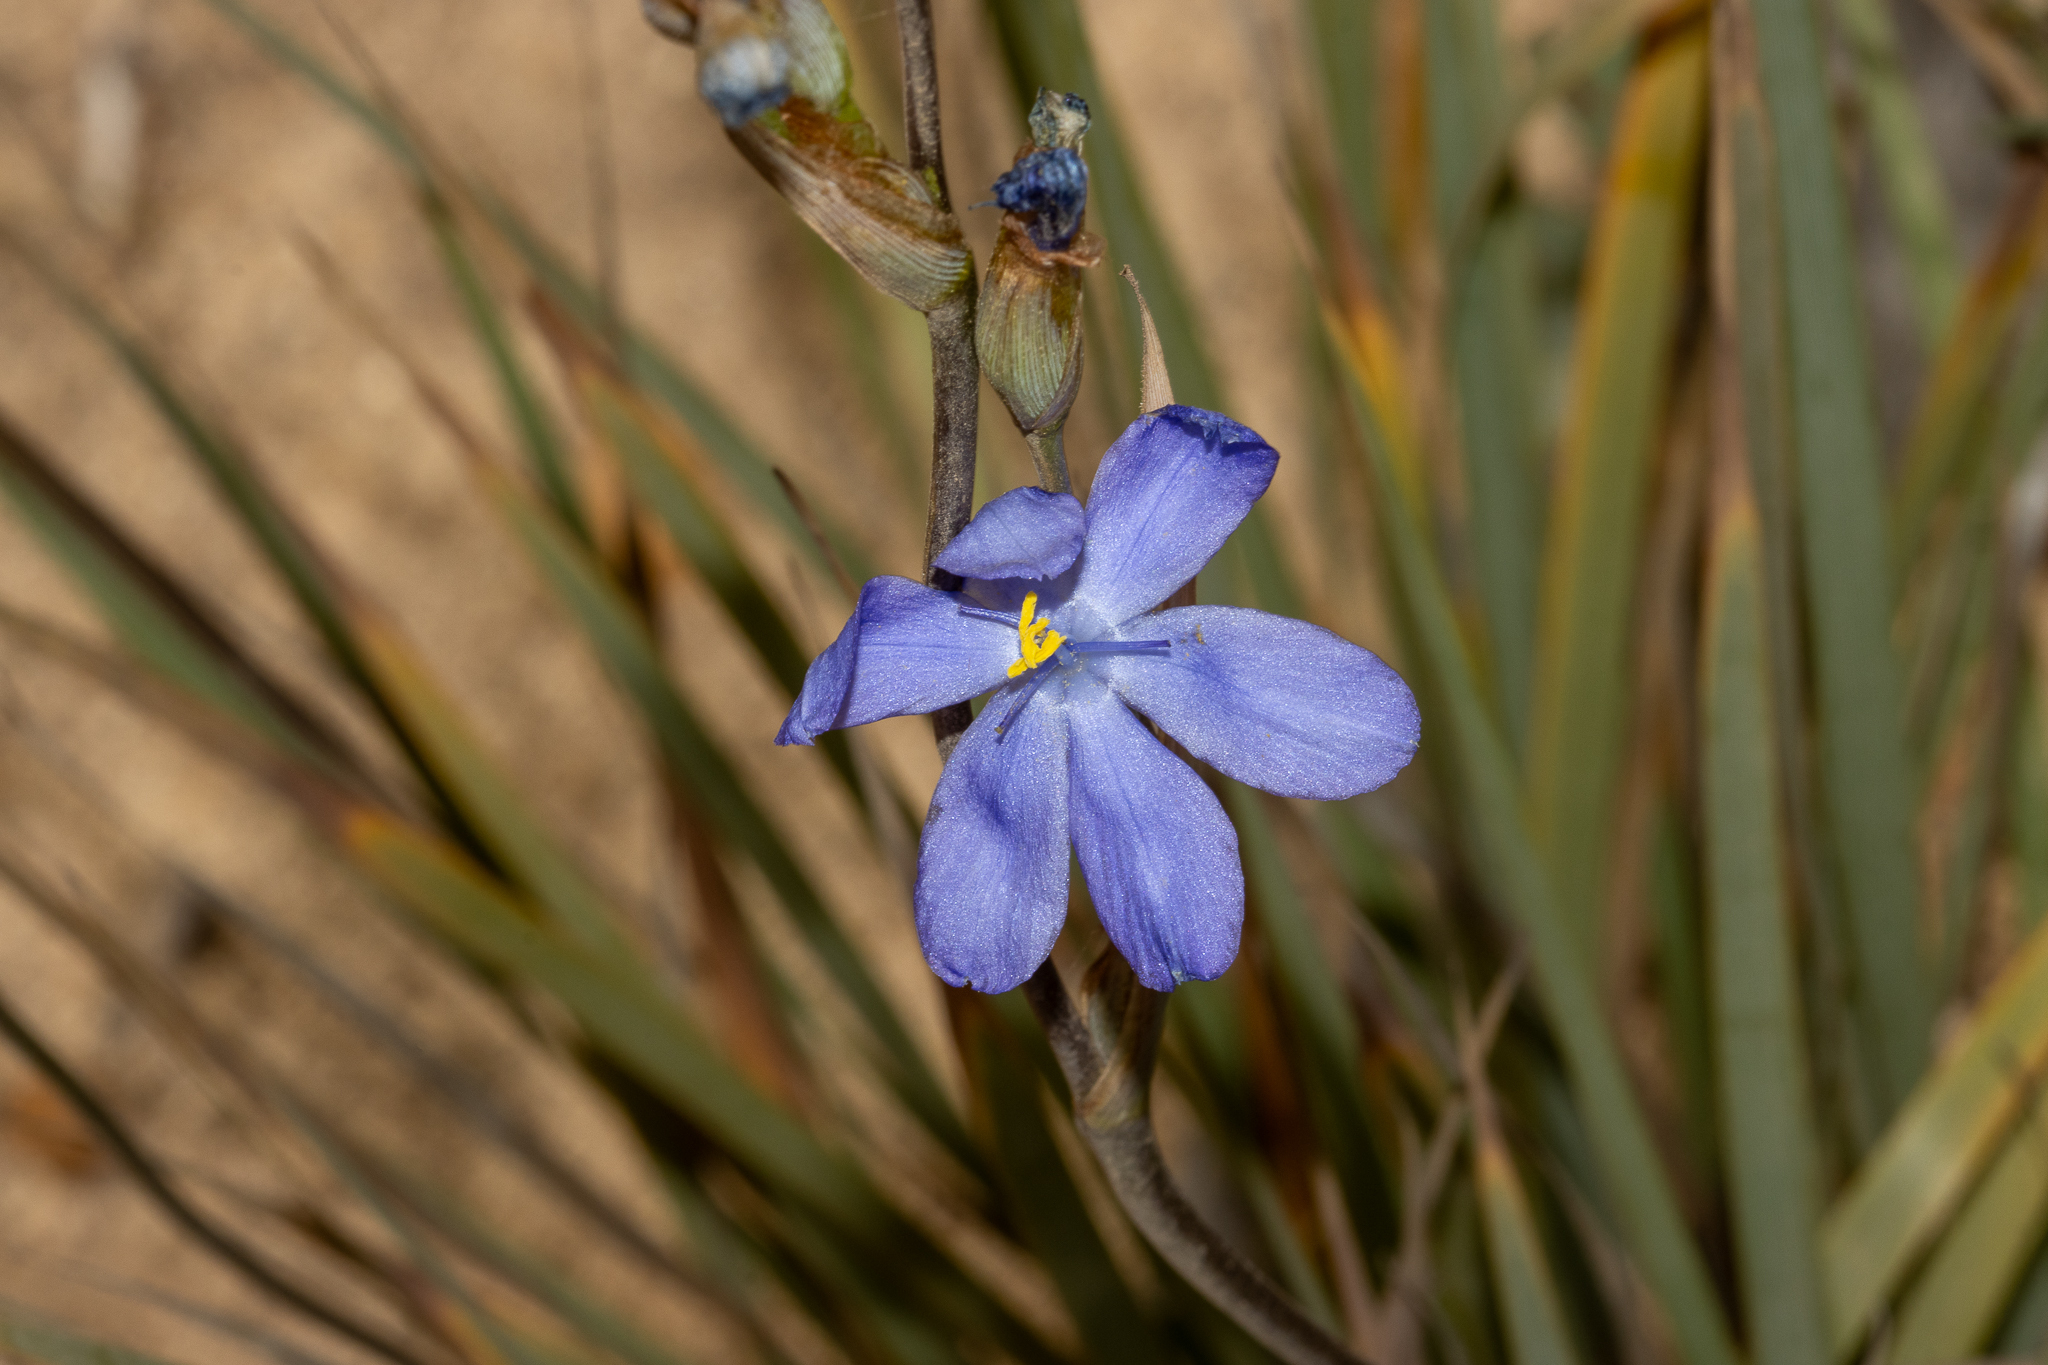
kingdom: Plantae
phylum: Tracheophyta
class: Liliopsida
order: Asparagales
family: Iridaceae
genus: Orthrosanthus
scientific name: Orthrosanthus multiflorus
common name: Morning-flag
